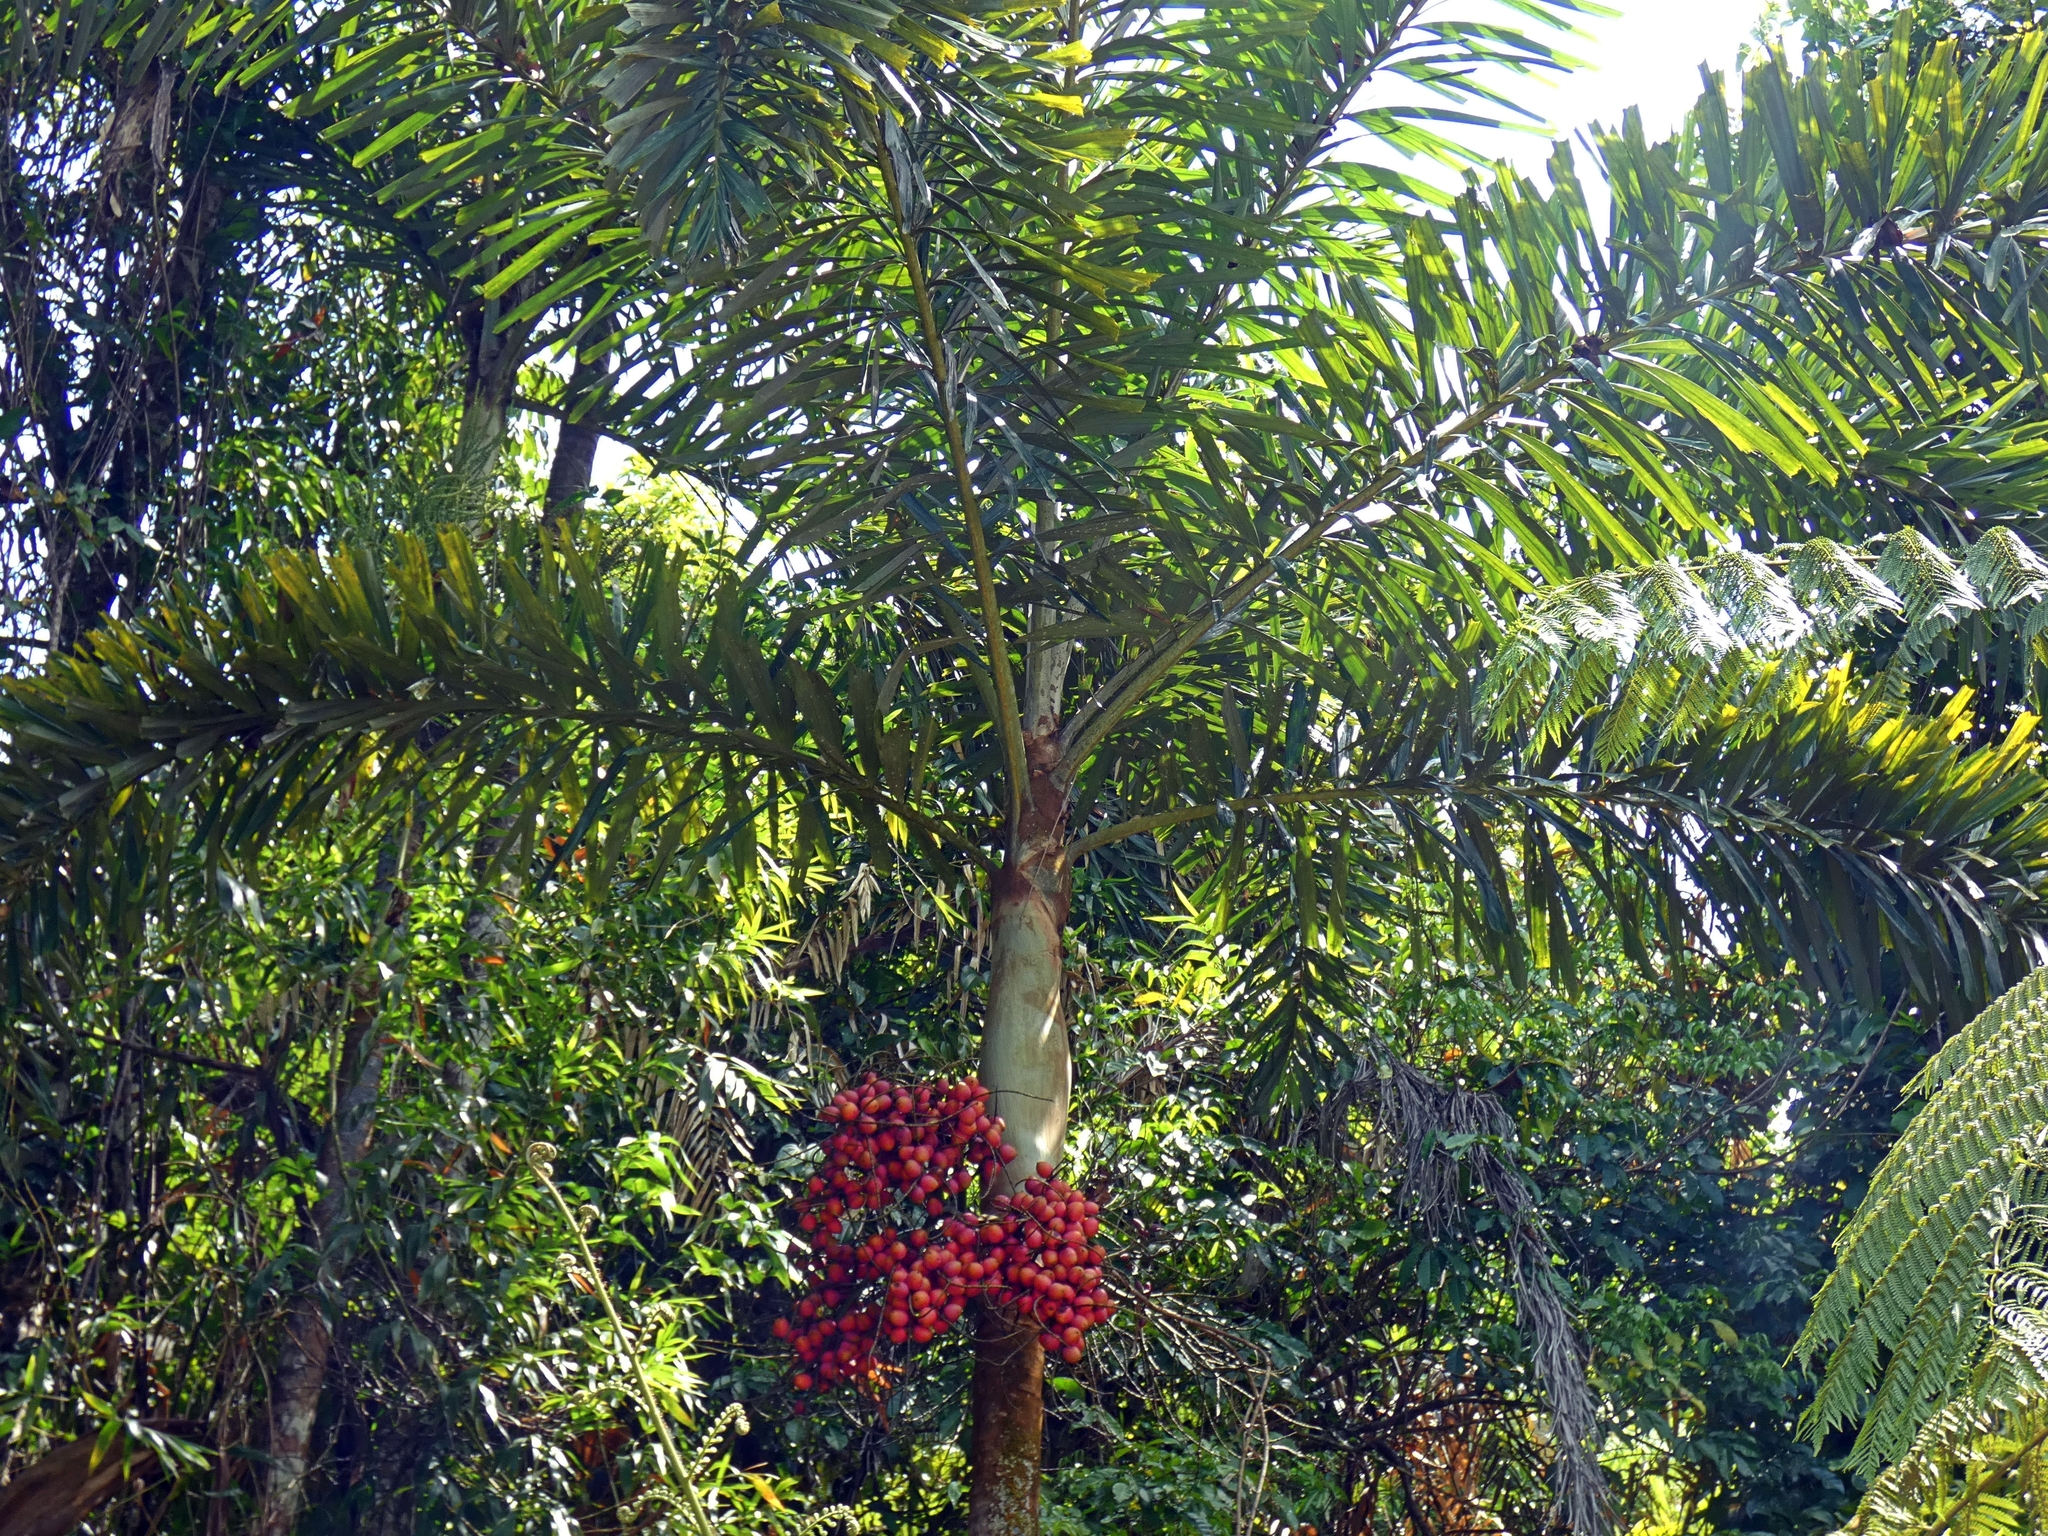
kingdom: Plantae
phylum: Tracheophyta
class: Liliopsida
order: Arecales
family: Arecaceae
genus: Normanbya
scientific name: Normanbya normanbyi
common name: Black palm
